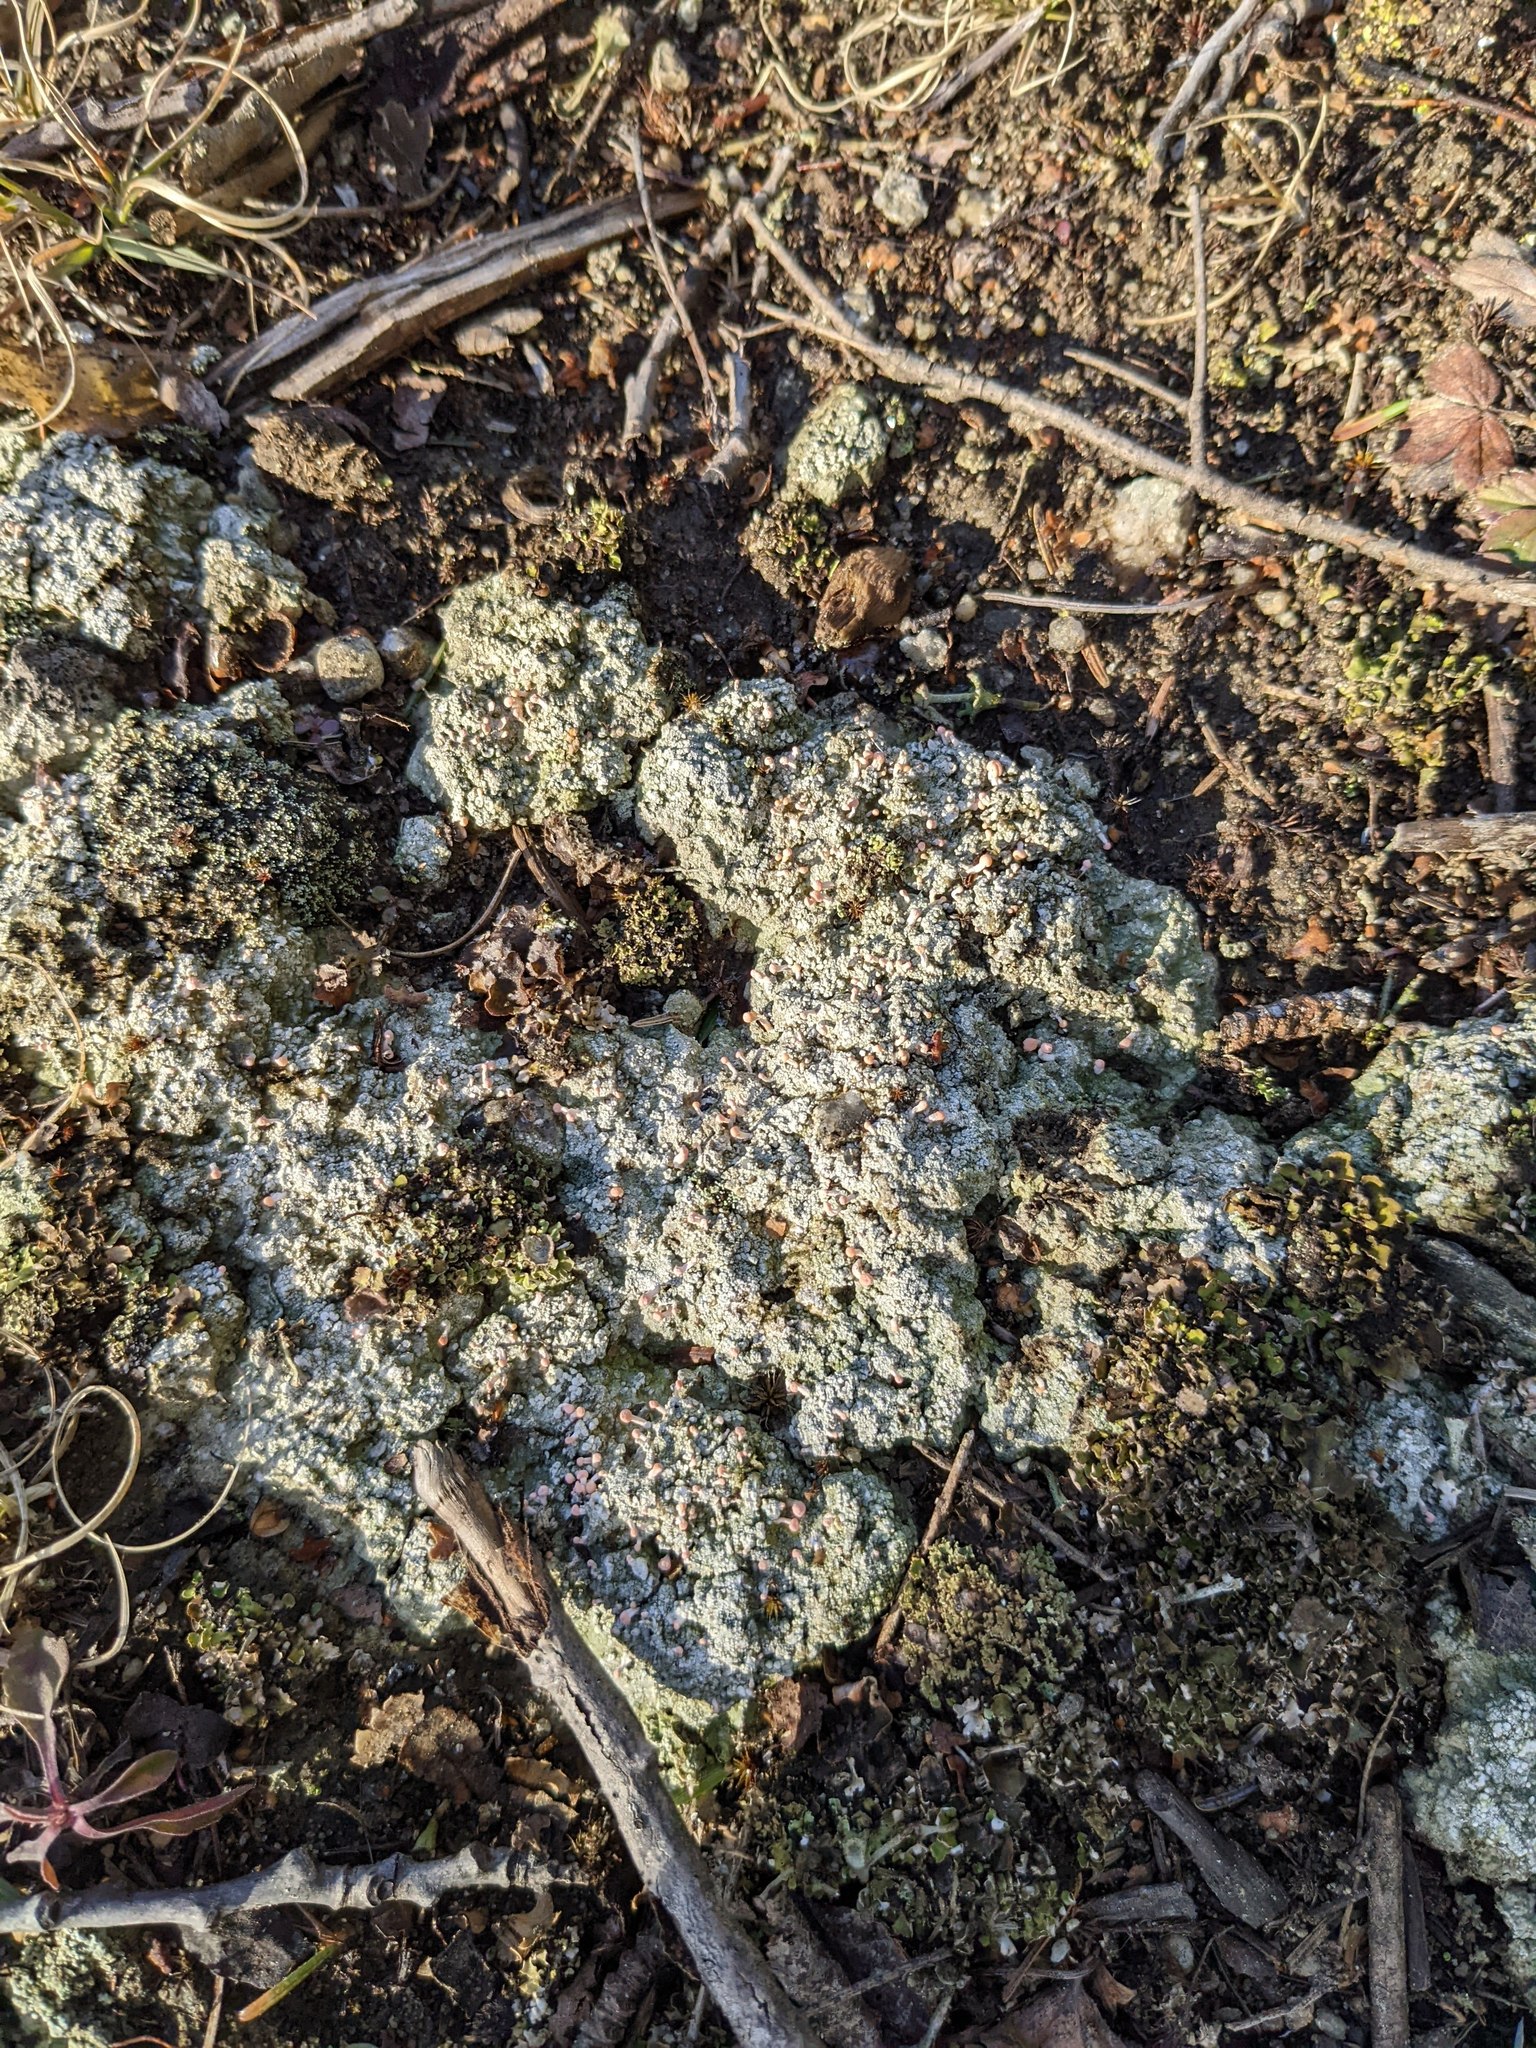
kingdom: Fungi
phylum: Ascomycota
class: Lecanoromycetes
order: Pertusariales
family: Icmadophilaceae
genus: Dibaeis
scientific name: Dibaeis baeomyces
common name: Pink earth lichen
